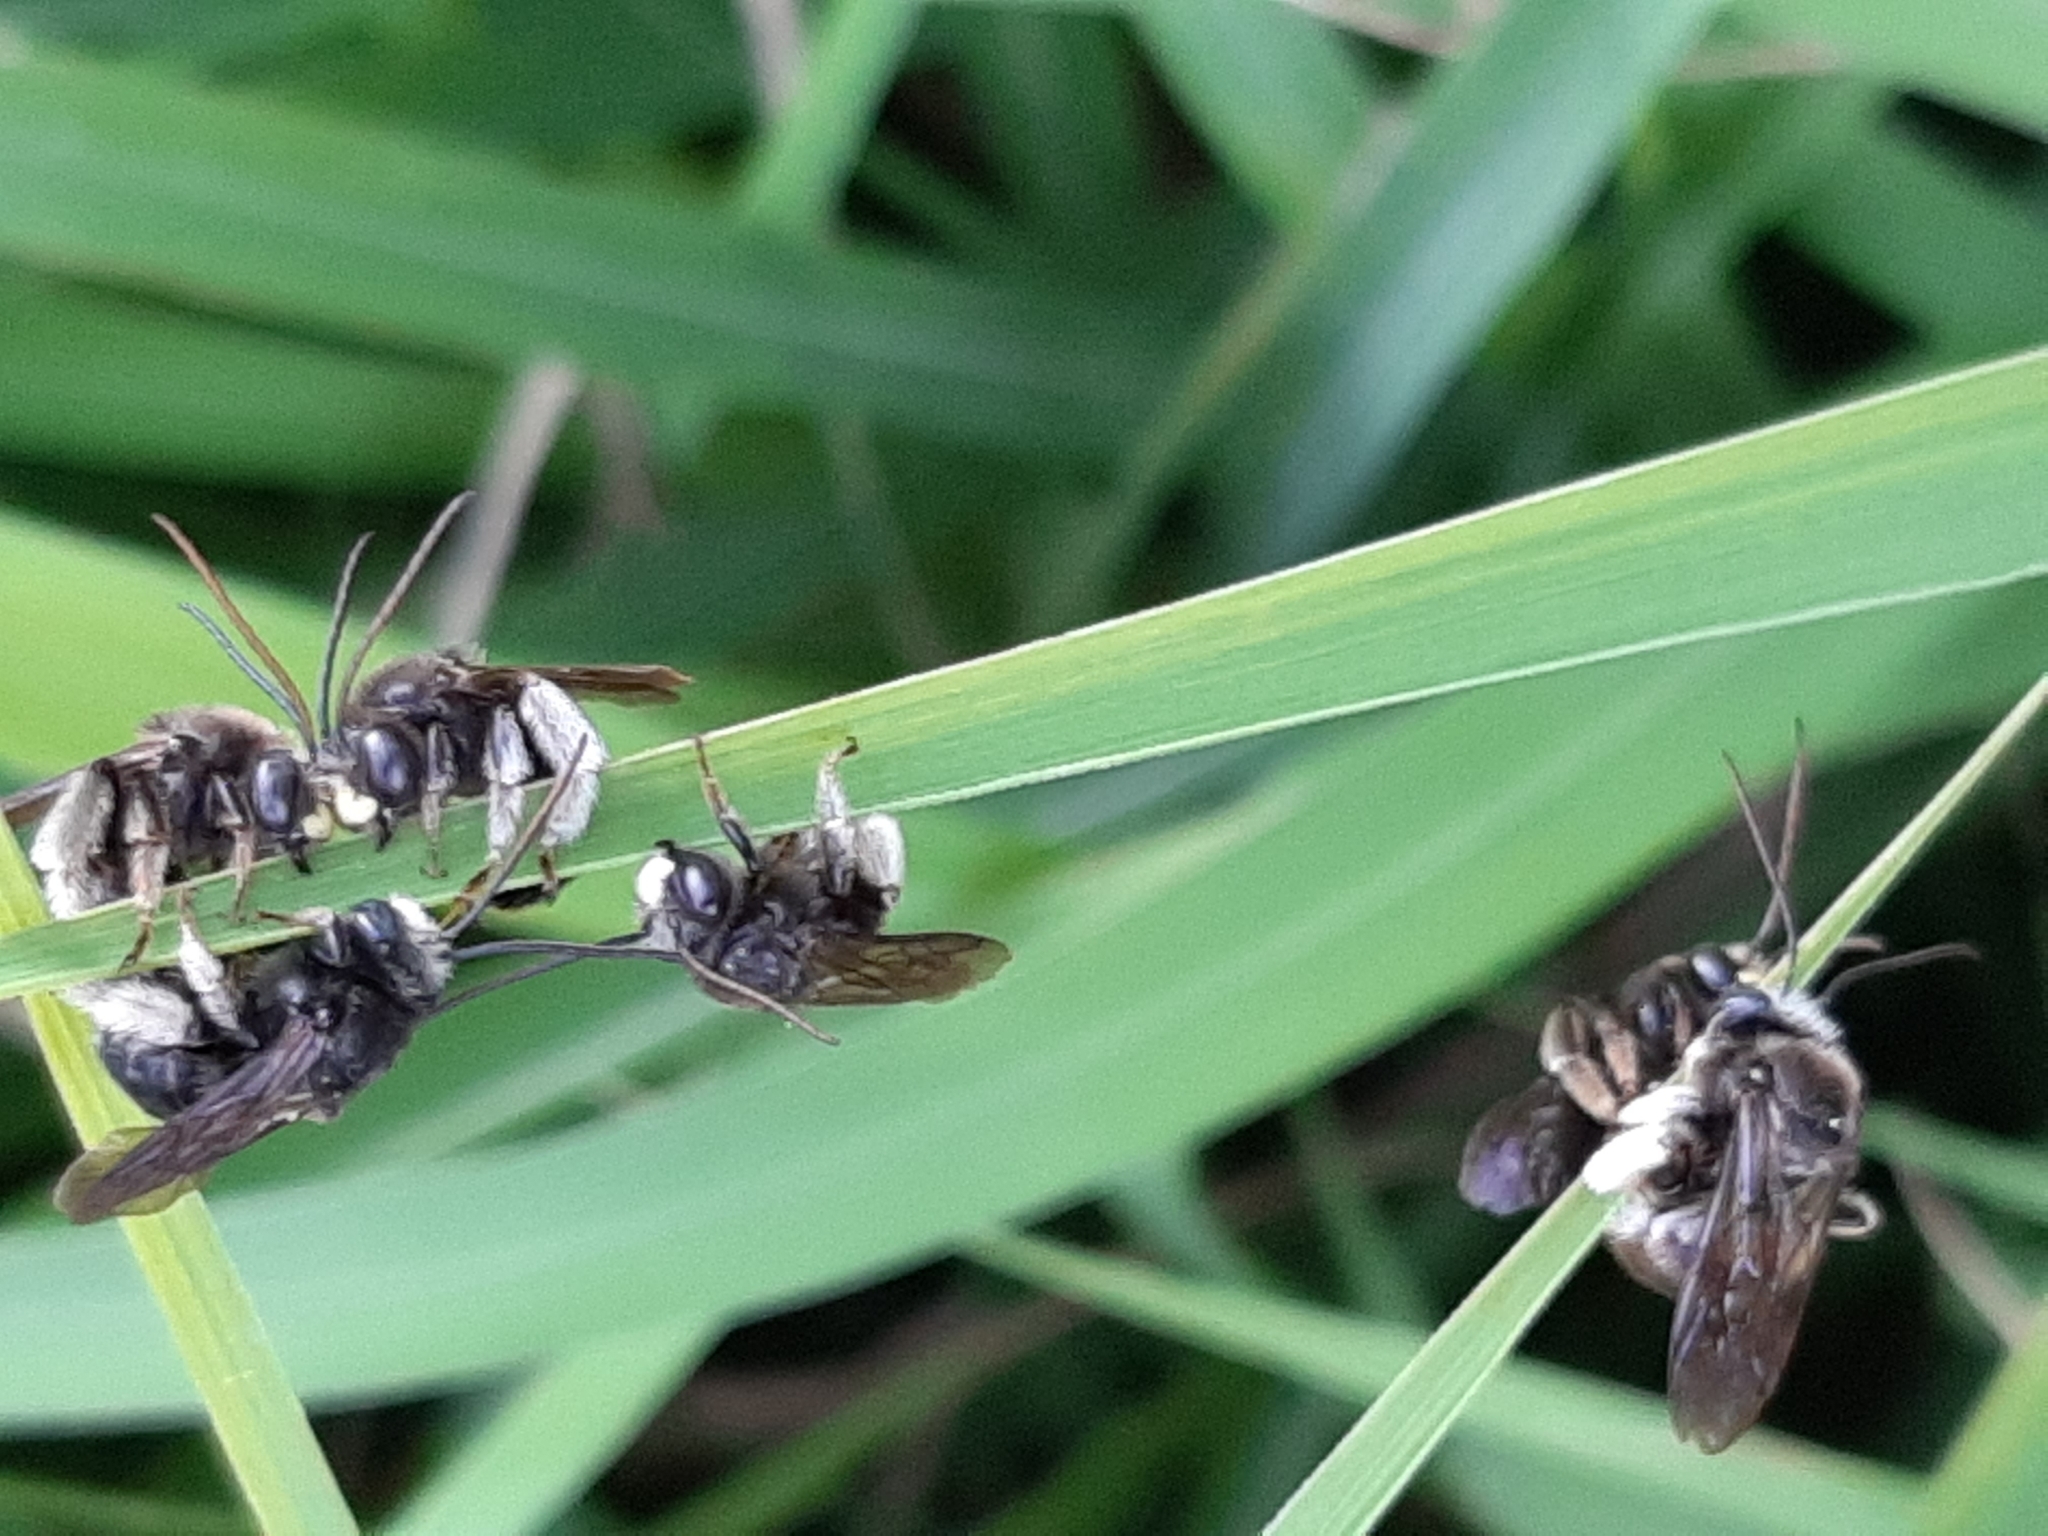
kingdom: Animalia
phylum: Arthropoda
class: Insecta
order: Hymenoptera
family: Apidae
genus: Melissodes
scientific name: Melissodes bimaculatus
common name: Two-spotted long-horned bee
